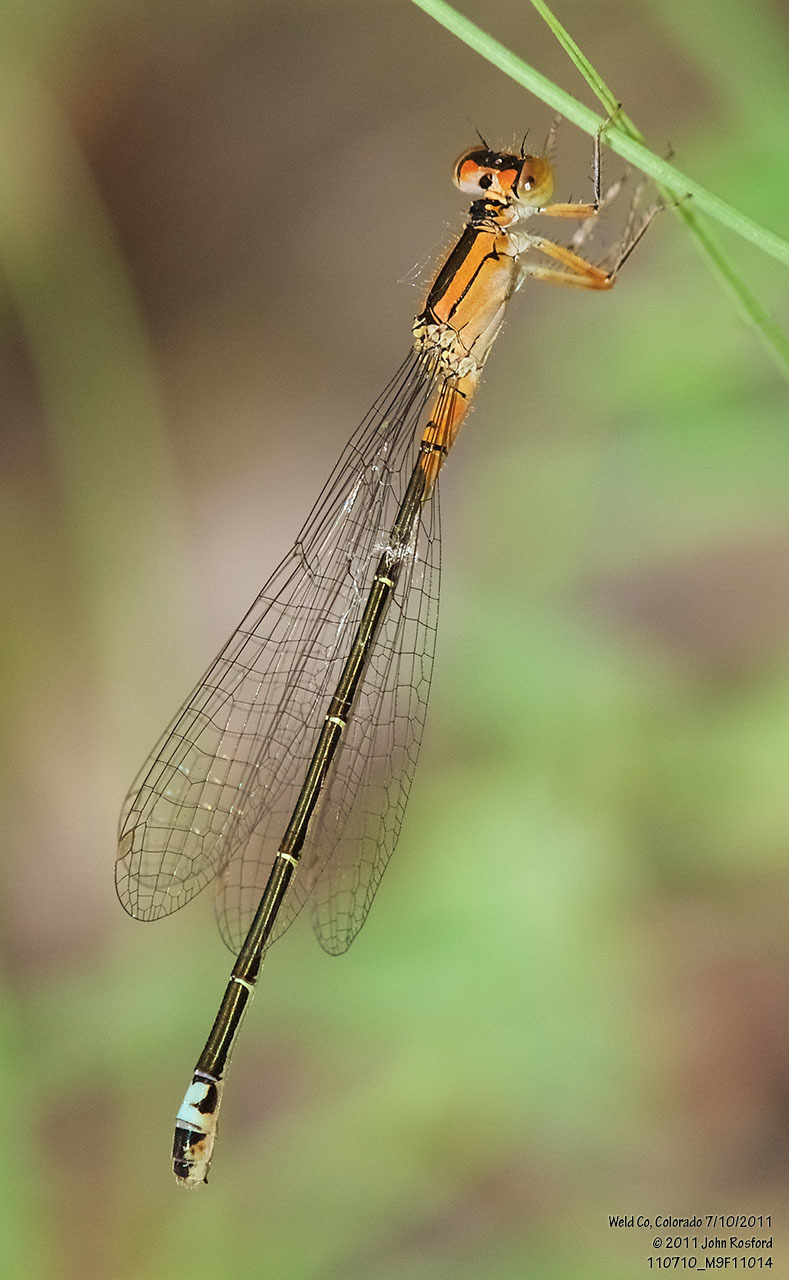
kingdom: Animalia
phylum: Arthropoda
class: Insecta
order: Odonata
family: Coenagrionidae
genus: Ischnura
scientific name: Ischnura damula
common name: Plains forktail
